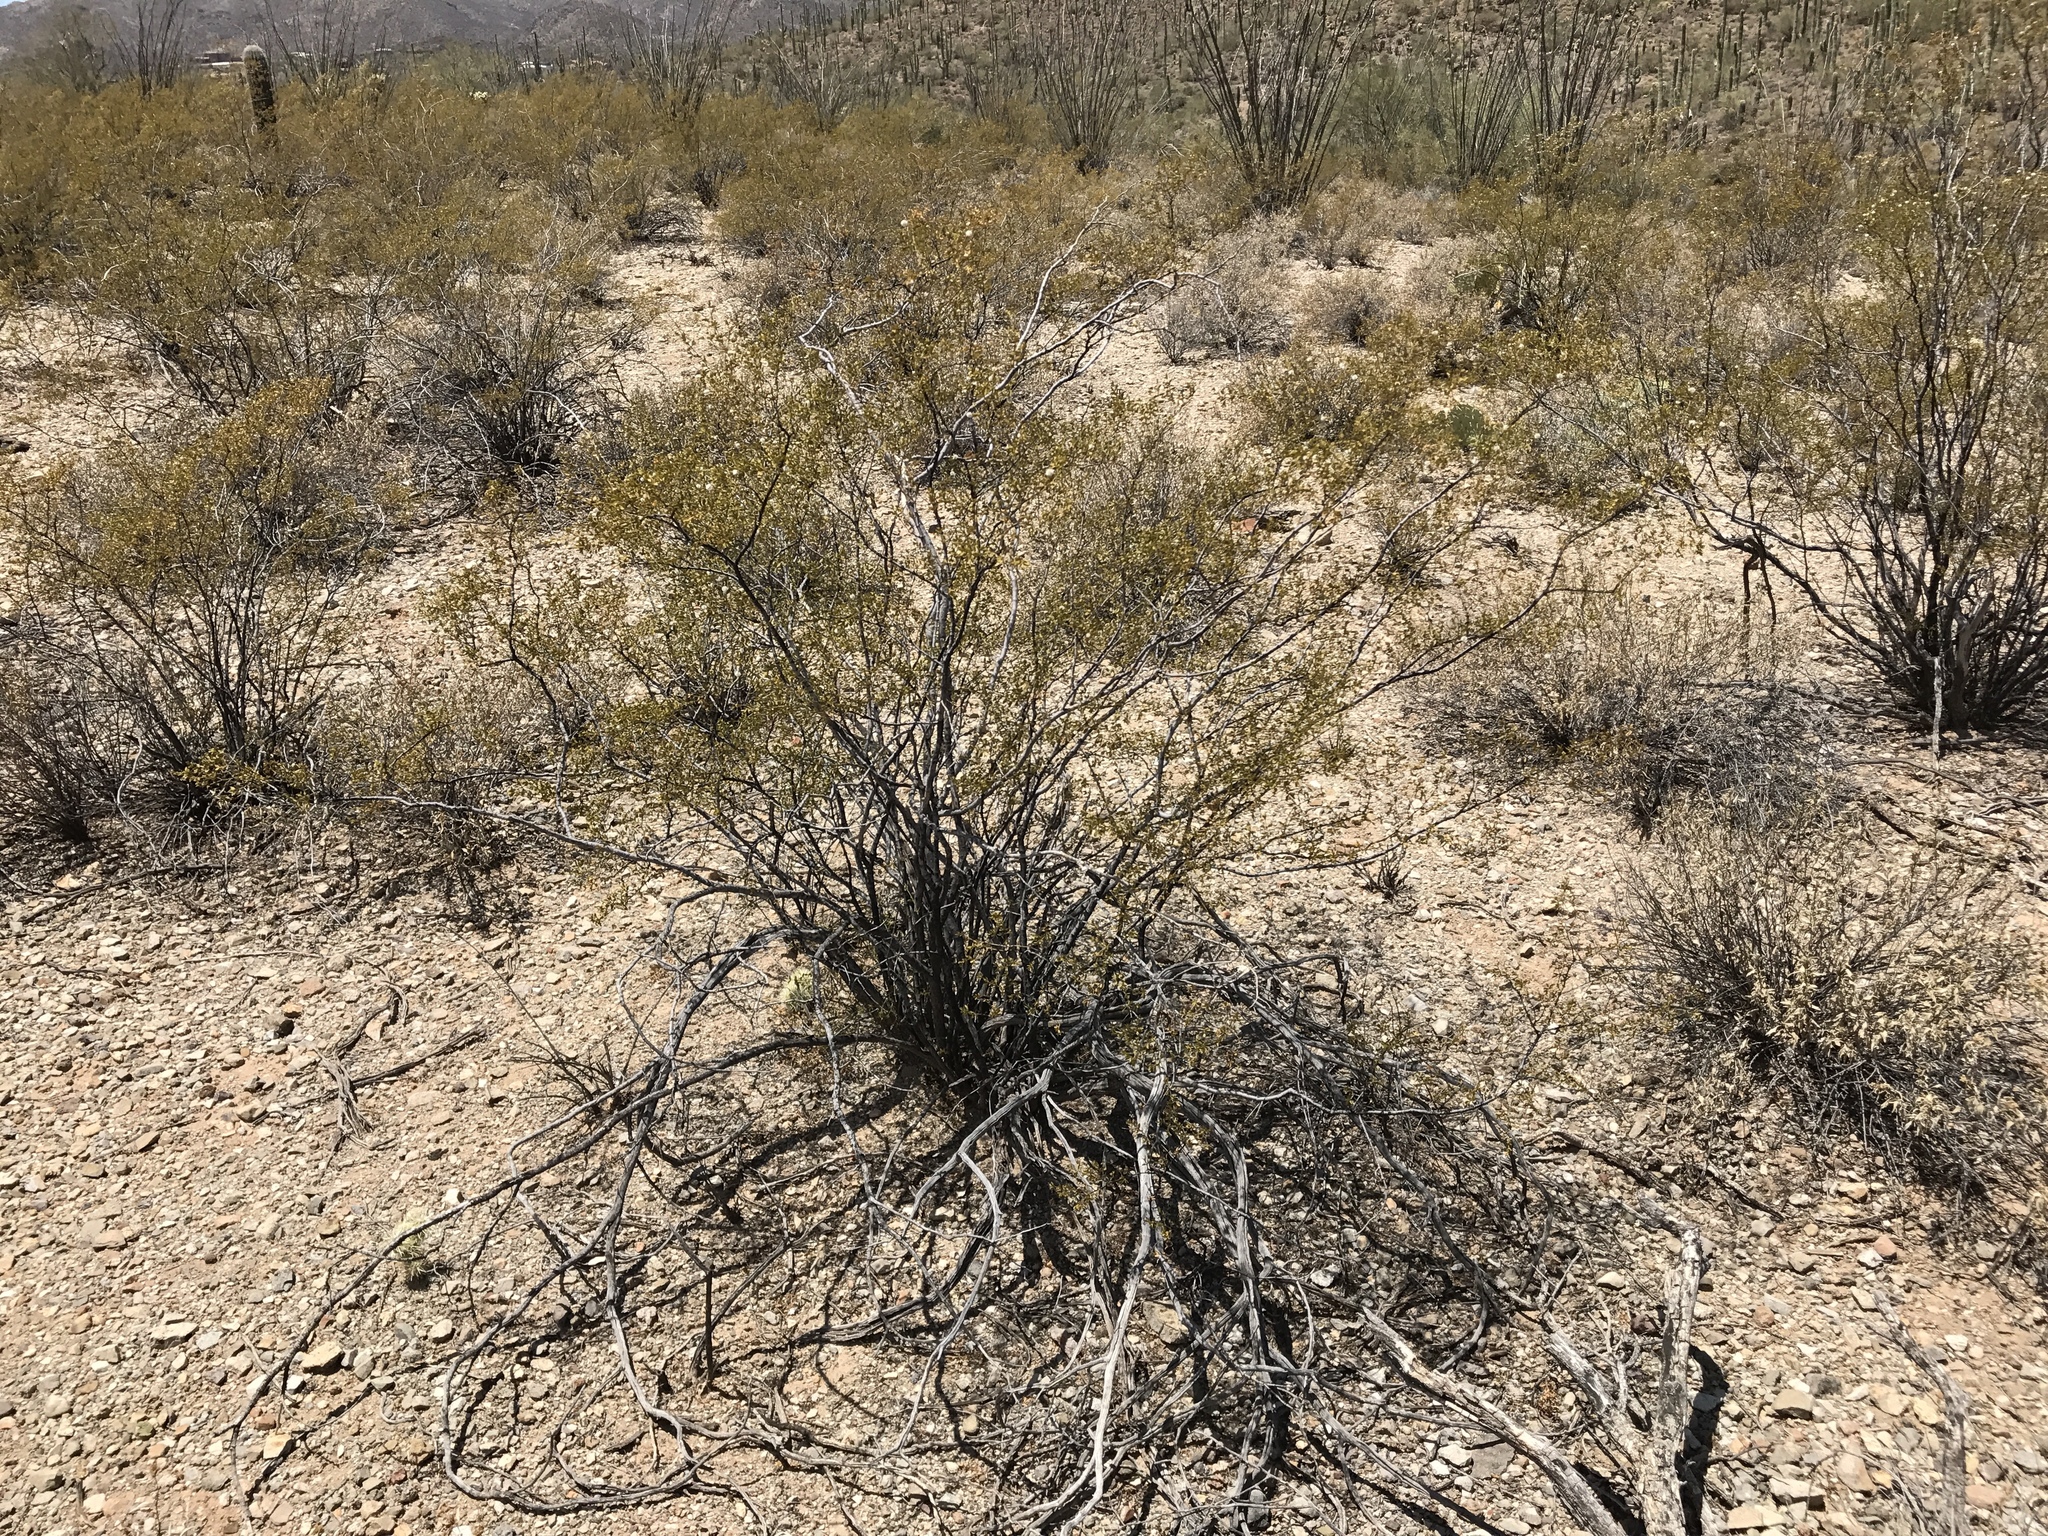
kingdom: Plantae
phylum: Tracheophyta
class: Magnoliopsida
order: Zygophyllales
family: Zygophyllaceae
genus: Larrea
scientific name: Larrea tridentata
